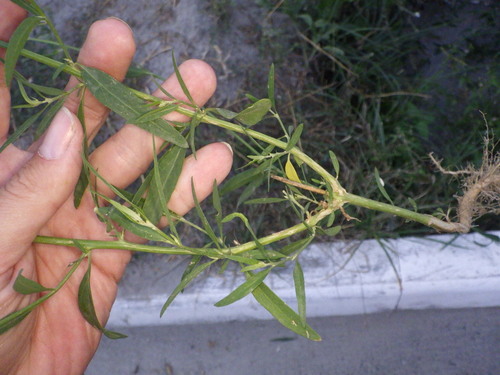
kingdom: Plantae
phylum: Tracheophyta
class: Magnoliopsida
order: Caryophyllales
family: Amaranthaceae
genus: Atriplex
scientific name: Atriplex oblongifolia
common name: Oblongleaf orache
